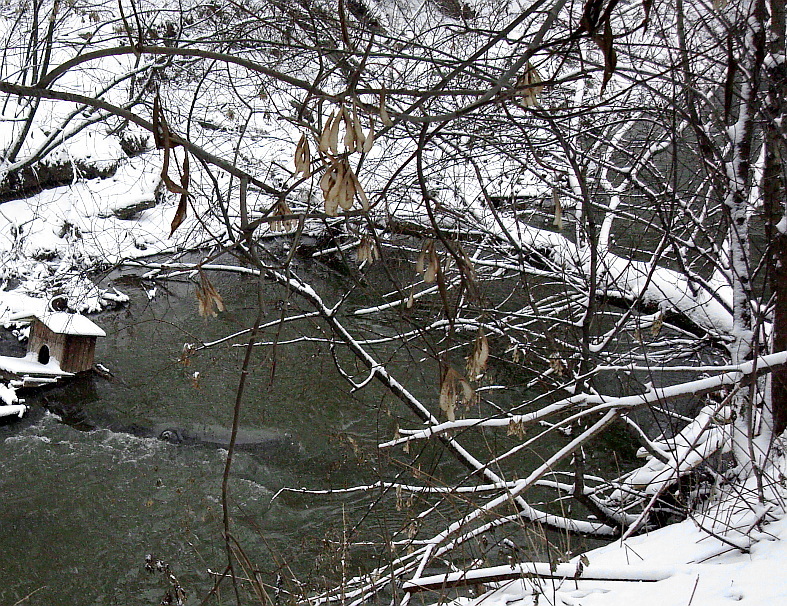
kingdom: Plantae
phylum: Tracheophyta
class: Magnoliopsida
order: Sapindales
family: Sapindaceae
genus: Acer
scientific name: Acer negundo
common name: Ashleaf maple
